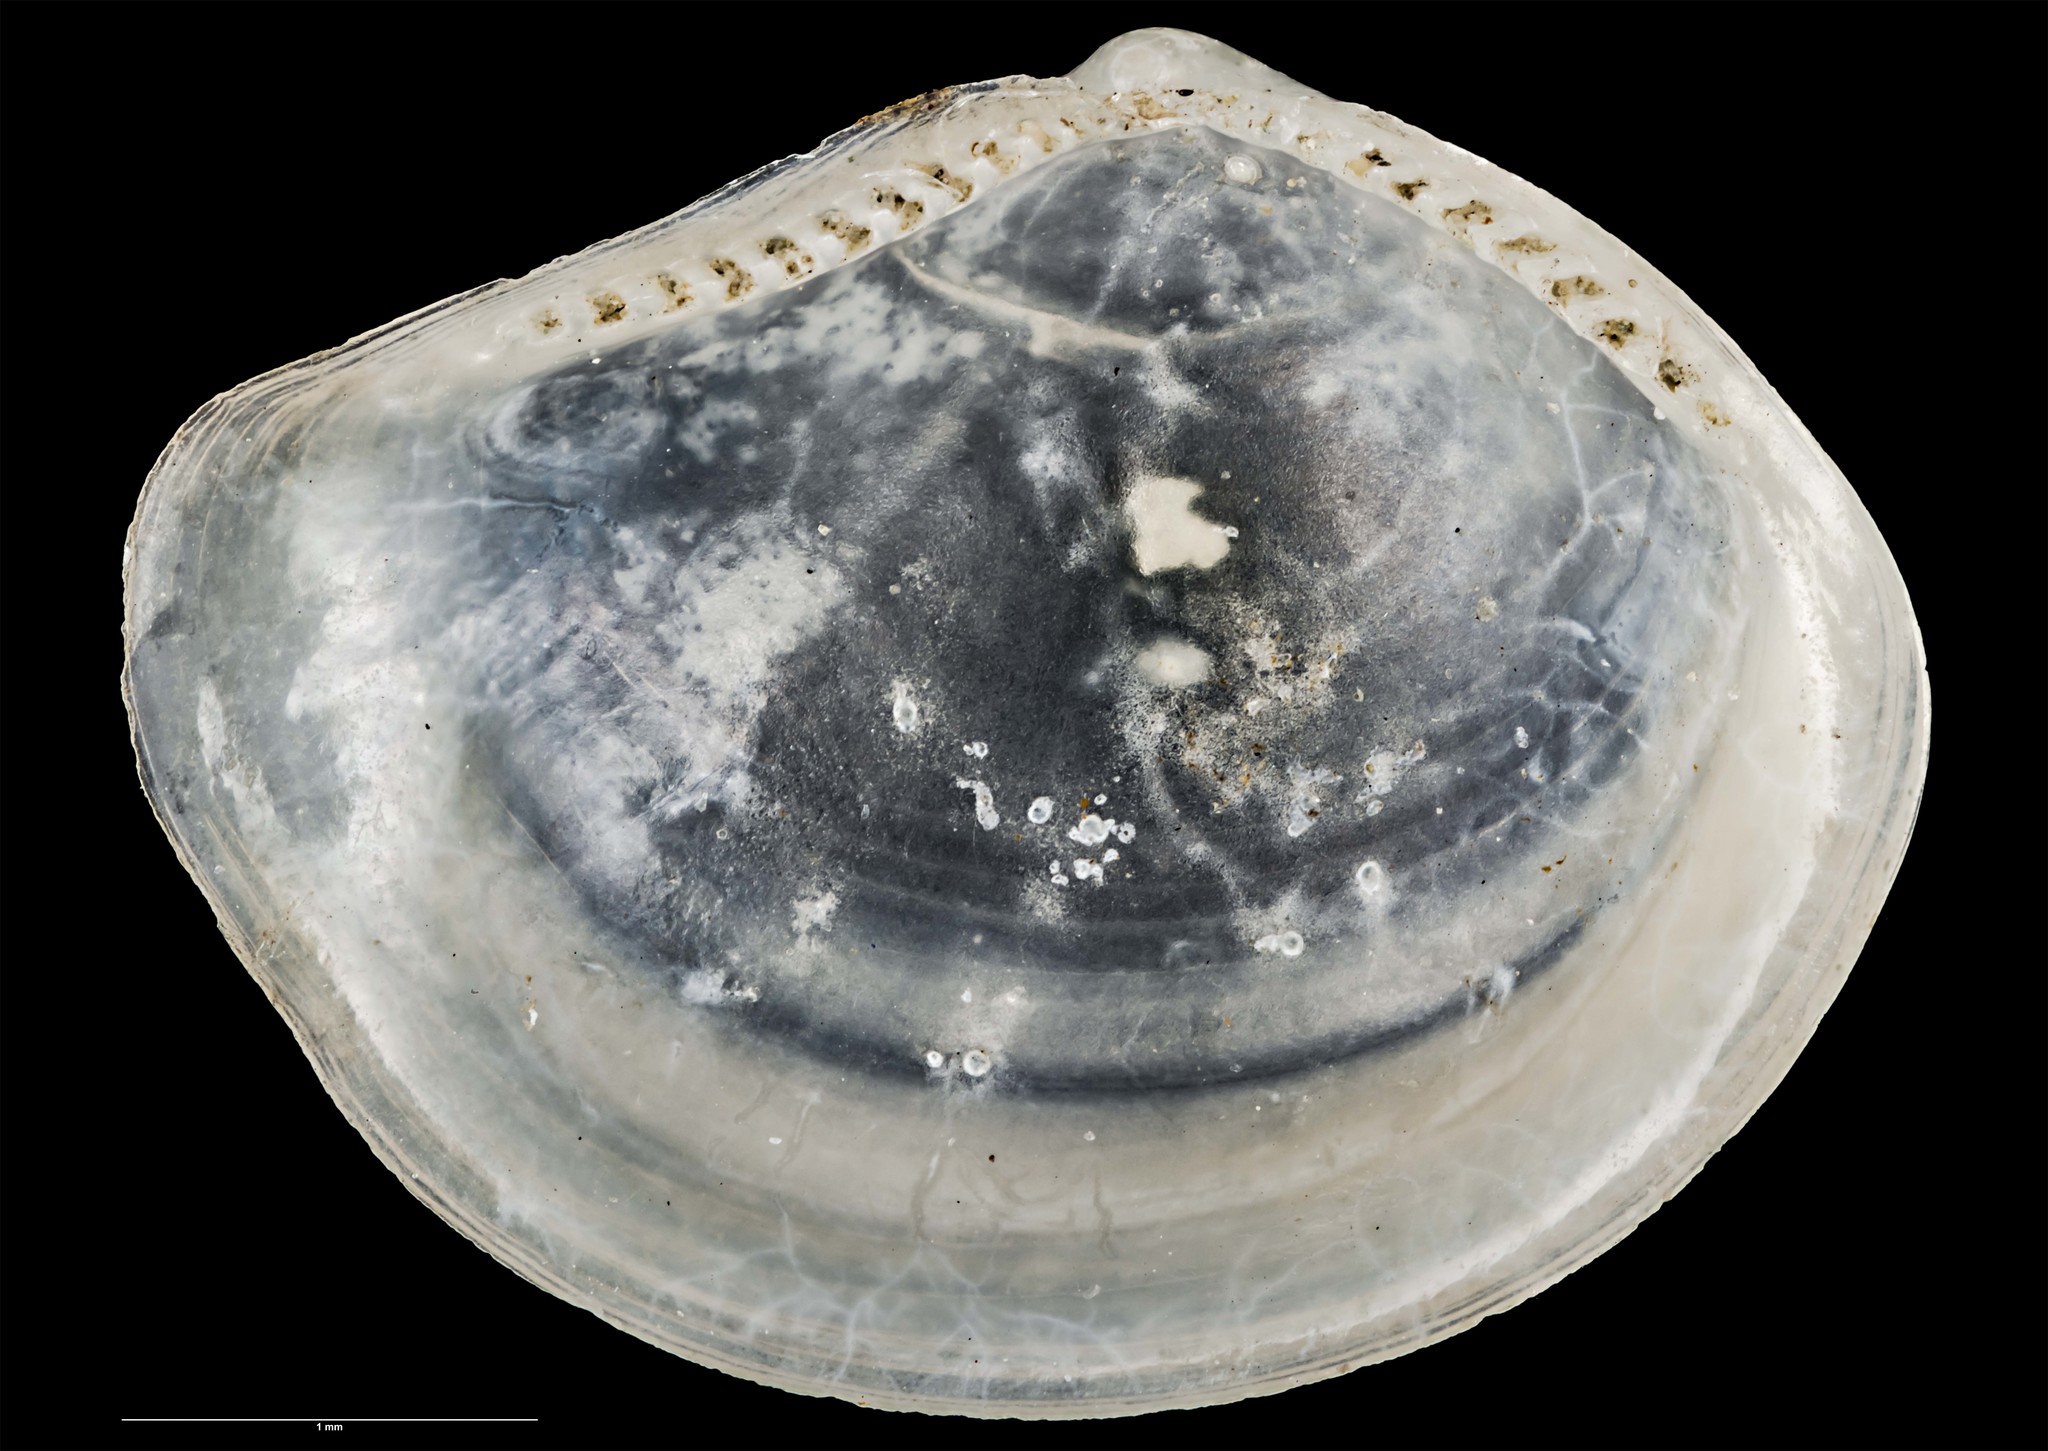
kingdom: Animalia
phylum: Mollusca
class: Bivalvia
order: Nuculanida
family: Yoldiidae
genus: Yoldiella
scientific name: Yoldiella hamiltoni
